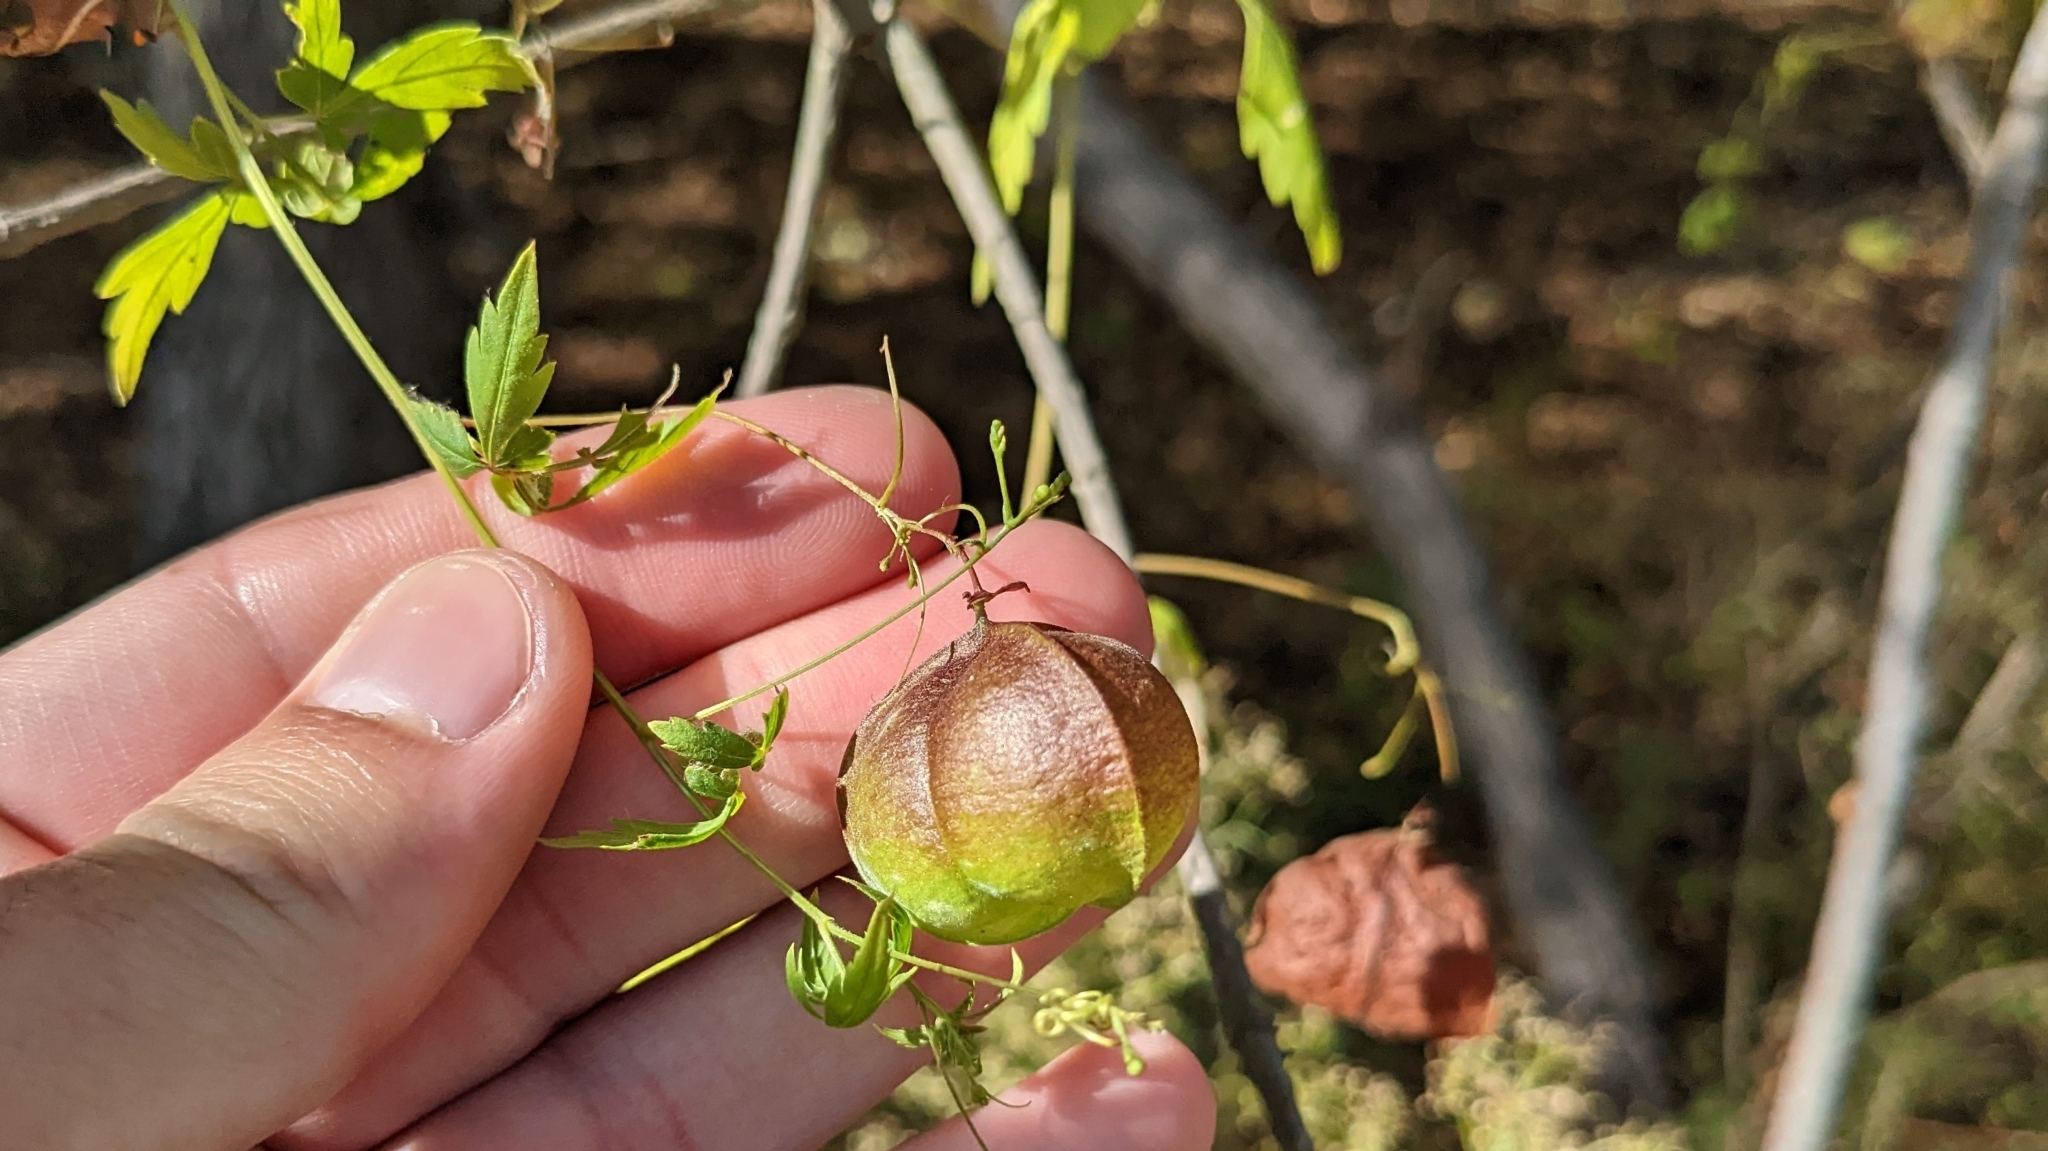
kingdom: Plantae
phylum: Tracheophyta
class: Magnoliopsida
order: Sapindales
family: Sapindaceae
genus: Cardiospermum
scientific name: Cardiospermum halicacabum
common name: Balloon vine
